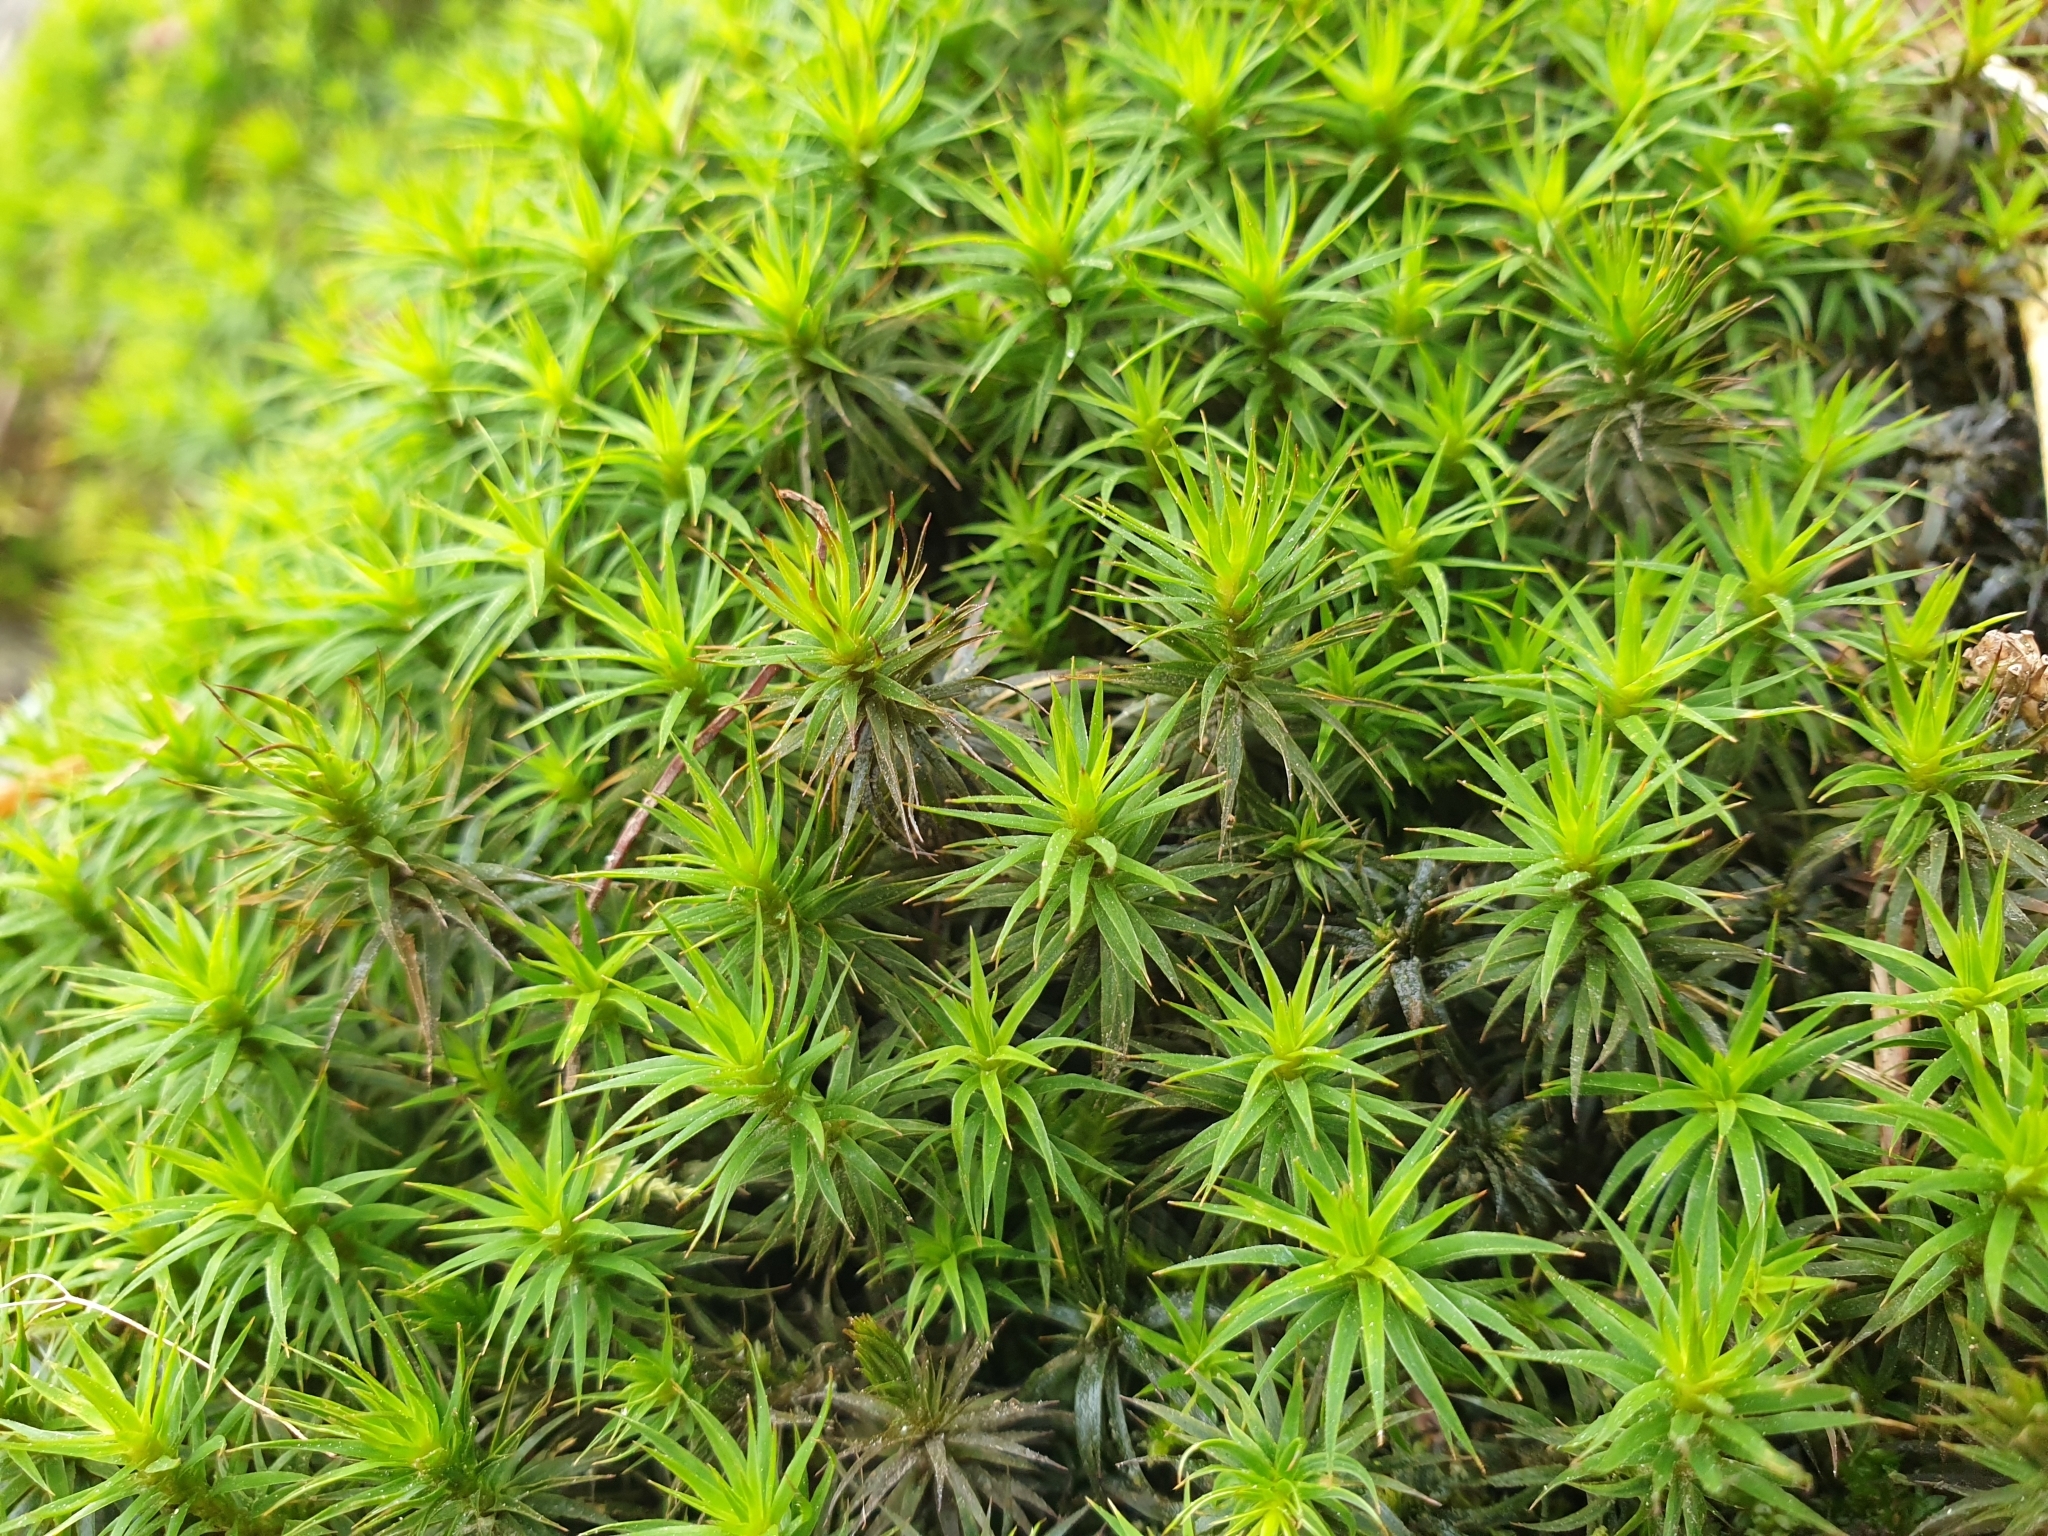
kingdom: Plantae
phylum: Bryophyta
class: Polytrichopsida
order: Polytrichales
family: Polytrichaceae
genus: Polytrichum
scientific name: Polytrichum formosum
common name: Bank haircap moss
